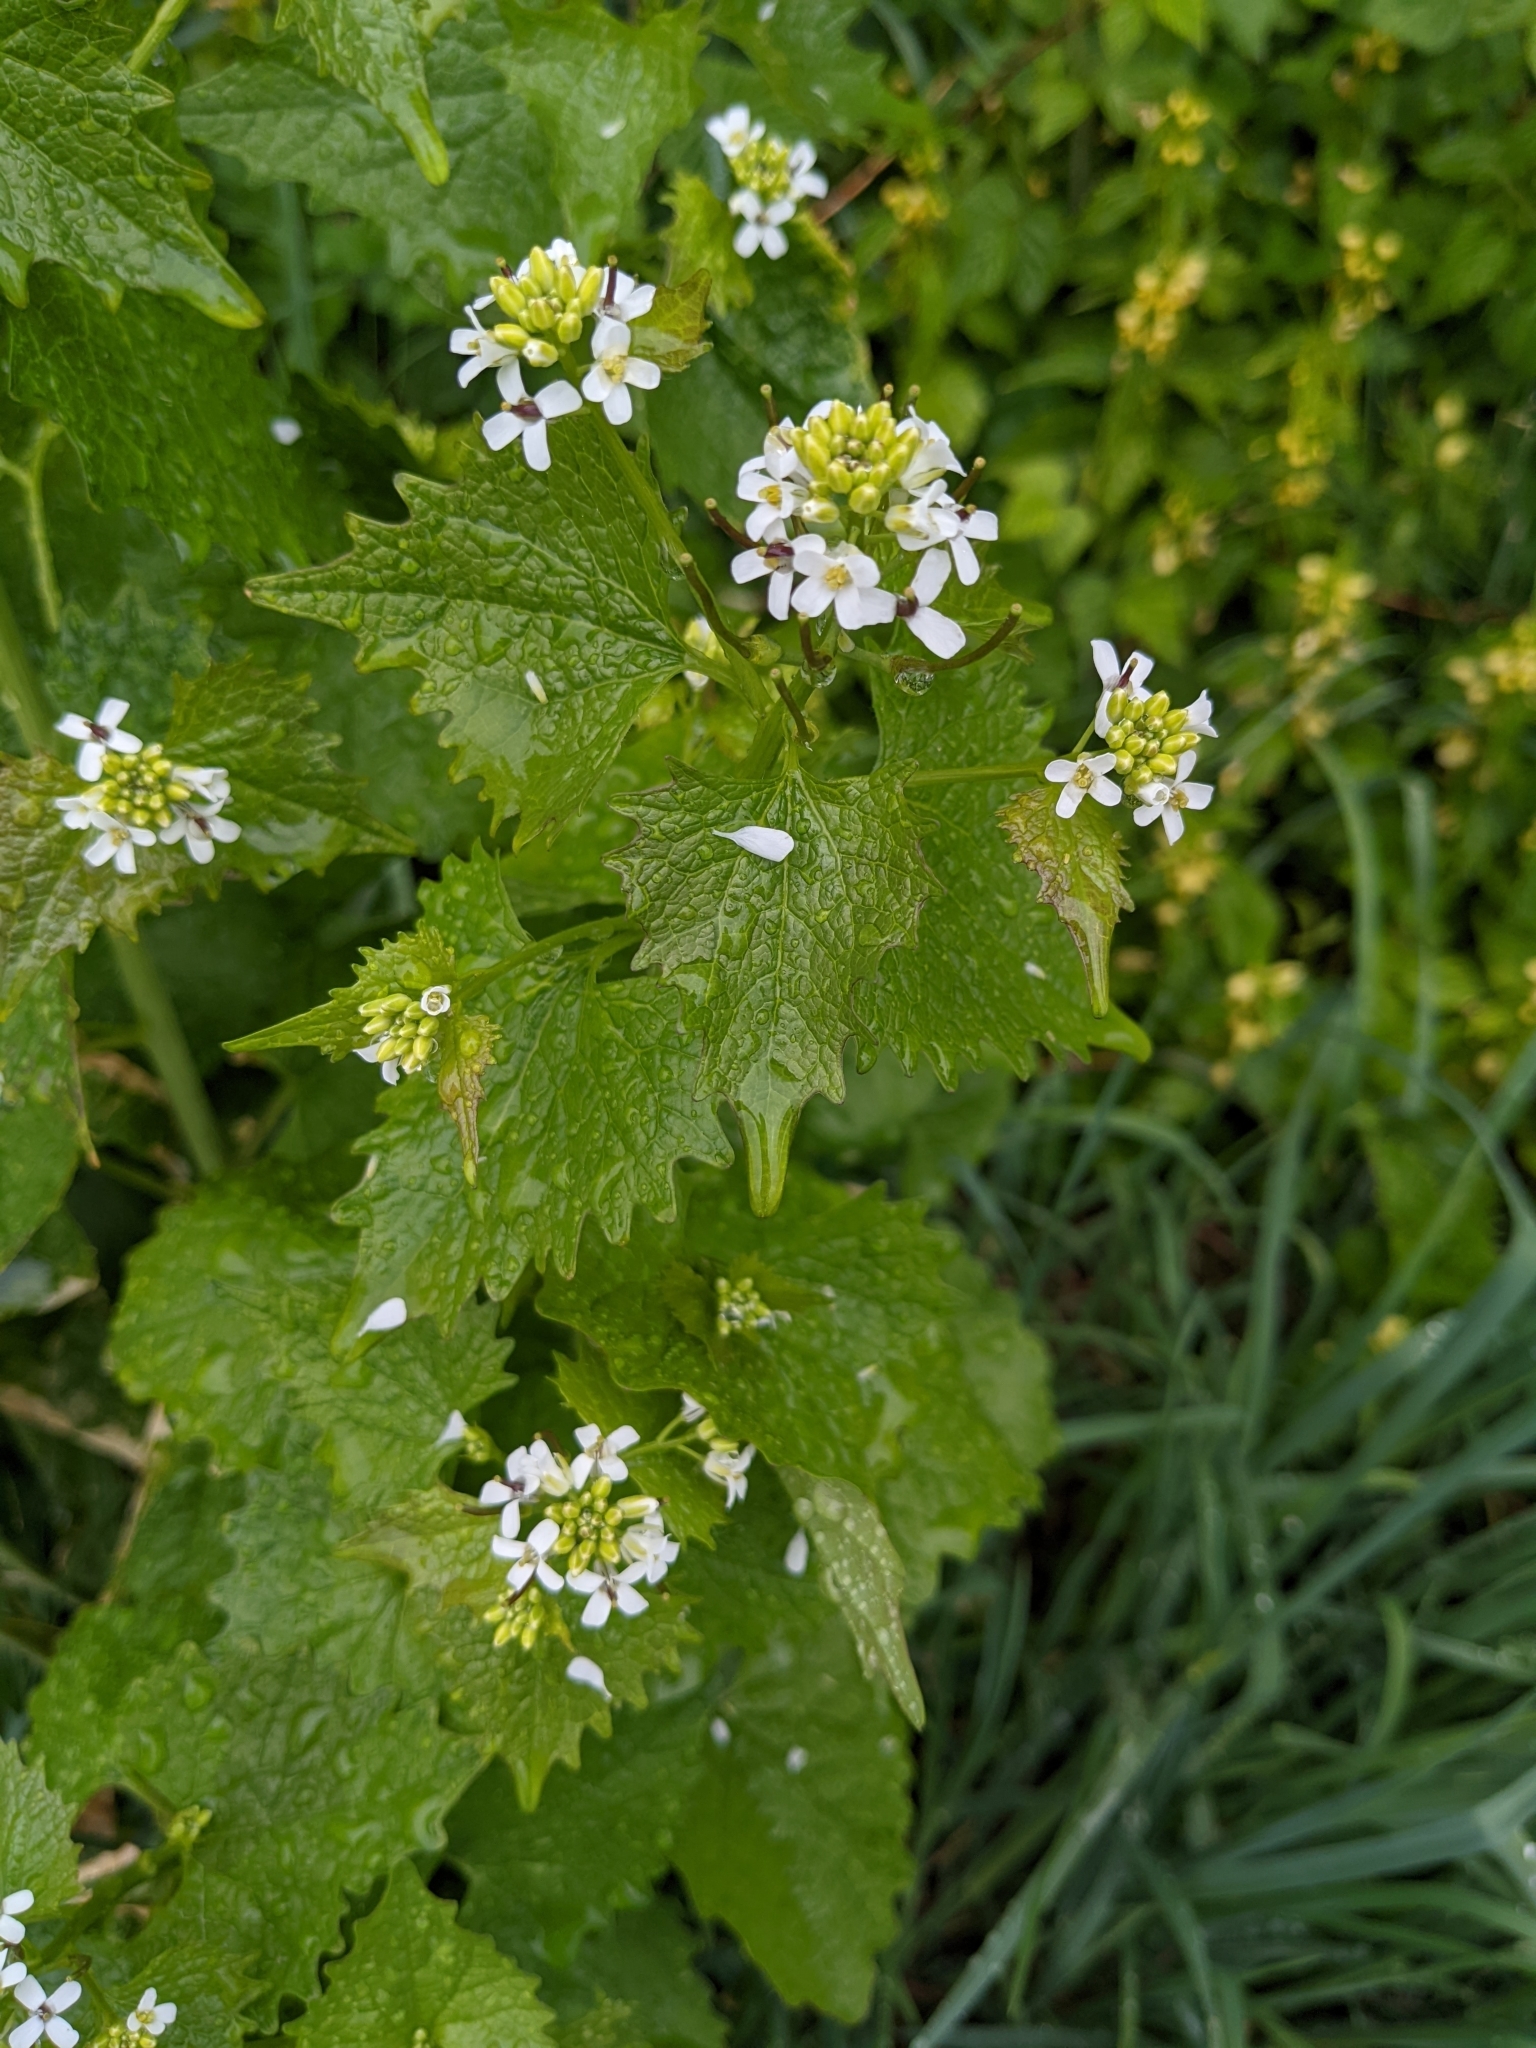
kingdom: Plantae
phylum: Tracheophyta
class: Magnoliopsida
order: Brassicales
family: Brassicaceae
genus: Alliaria
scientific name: Alliaria petiolata
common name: Garlic mustard
